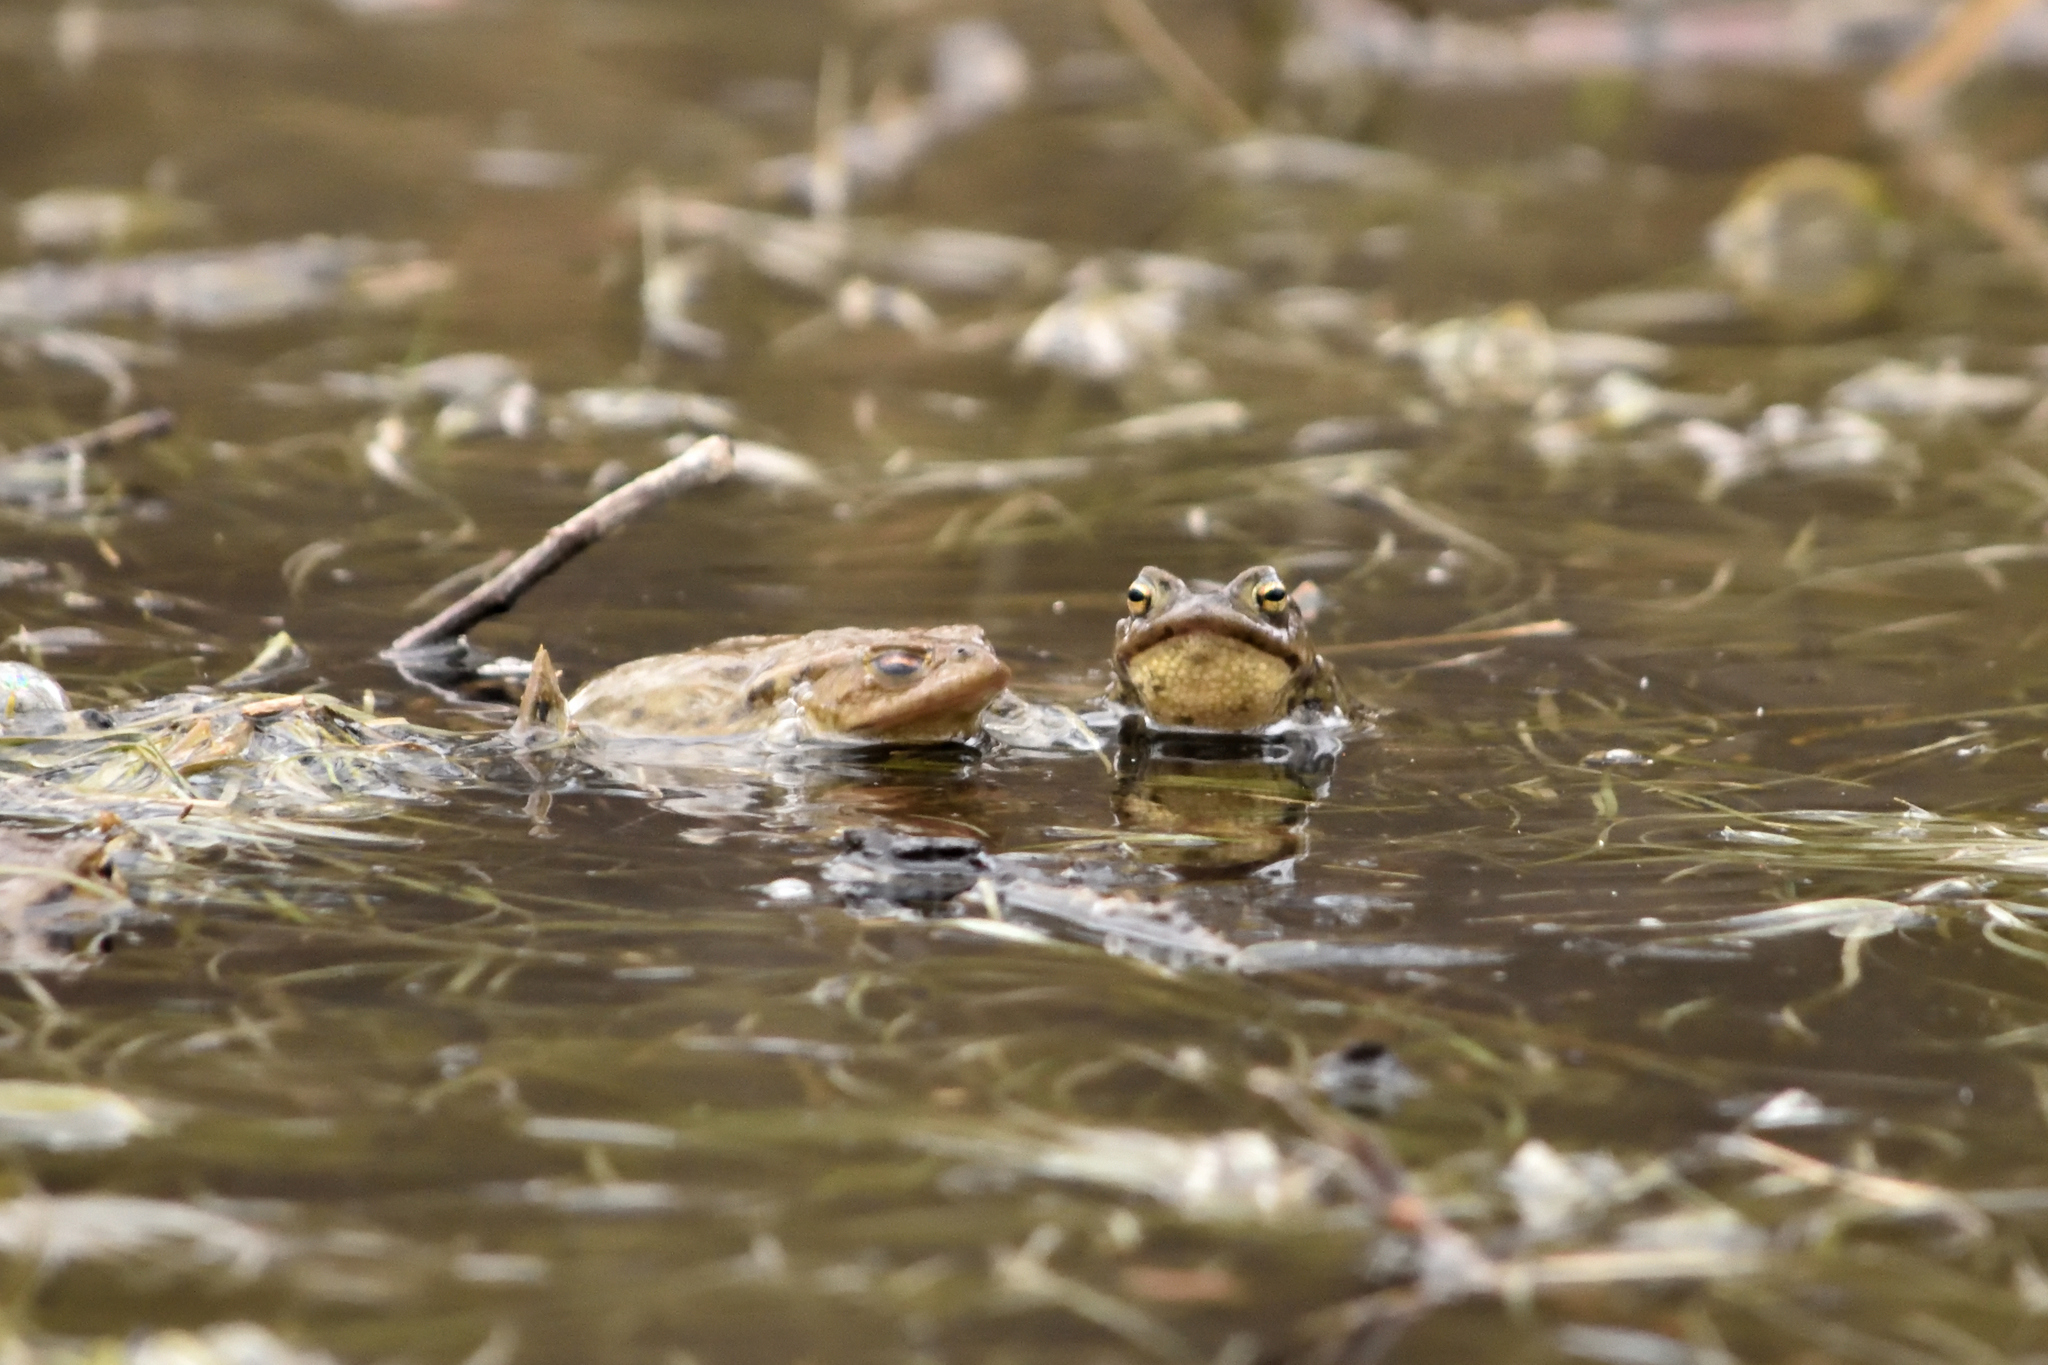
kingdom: Animalia
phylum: Chordata
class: Amphibia
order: Anura
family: Bufonidae
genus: Bufo
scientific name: Bufo bufo
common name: Common toad
